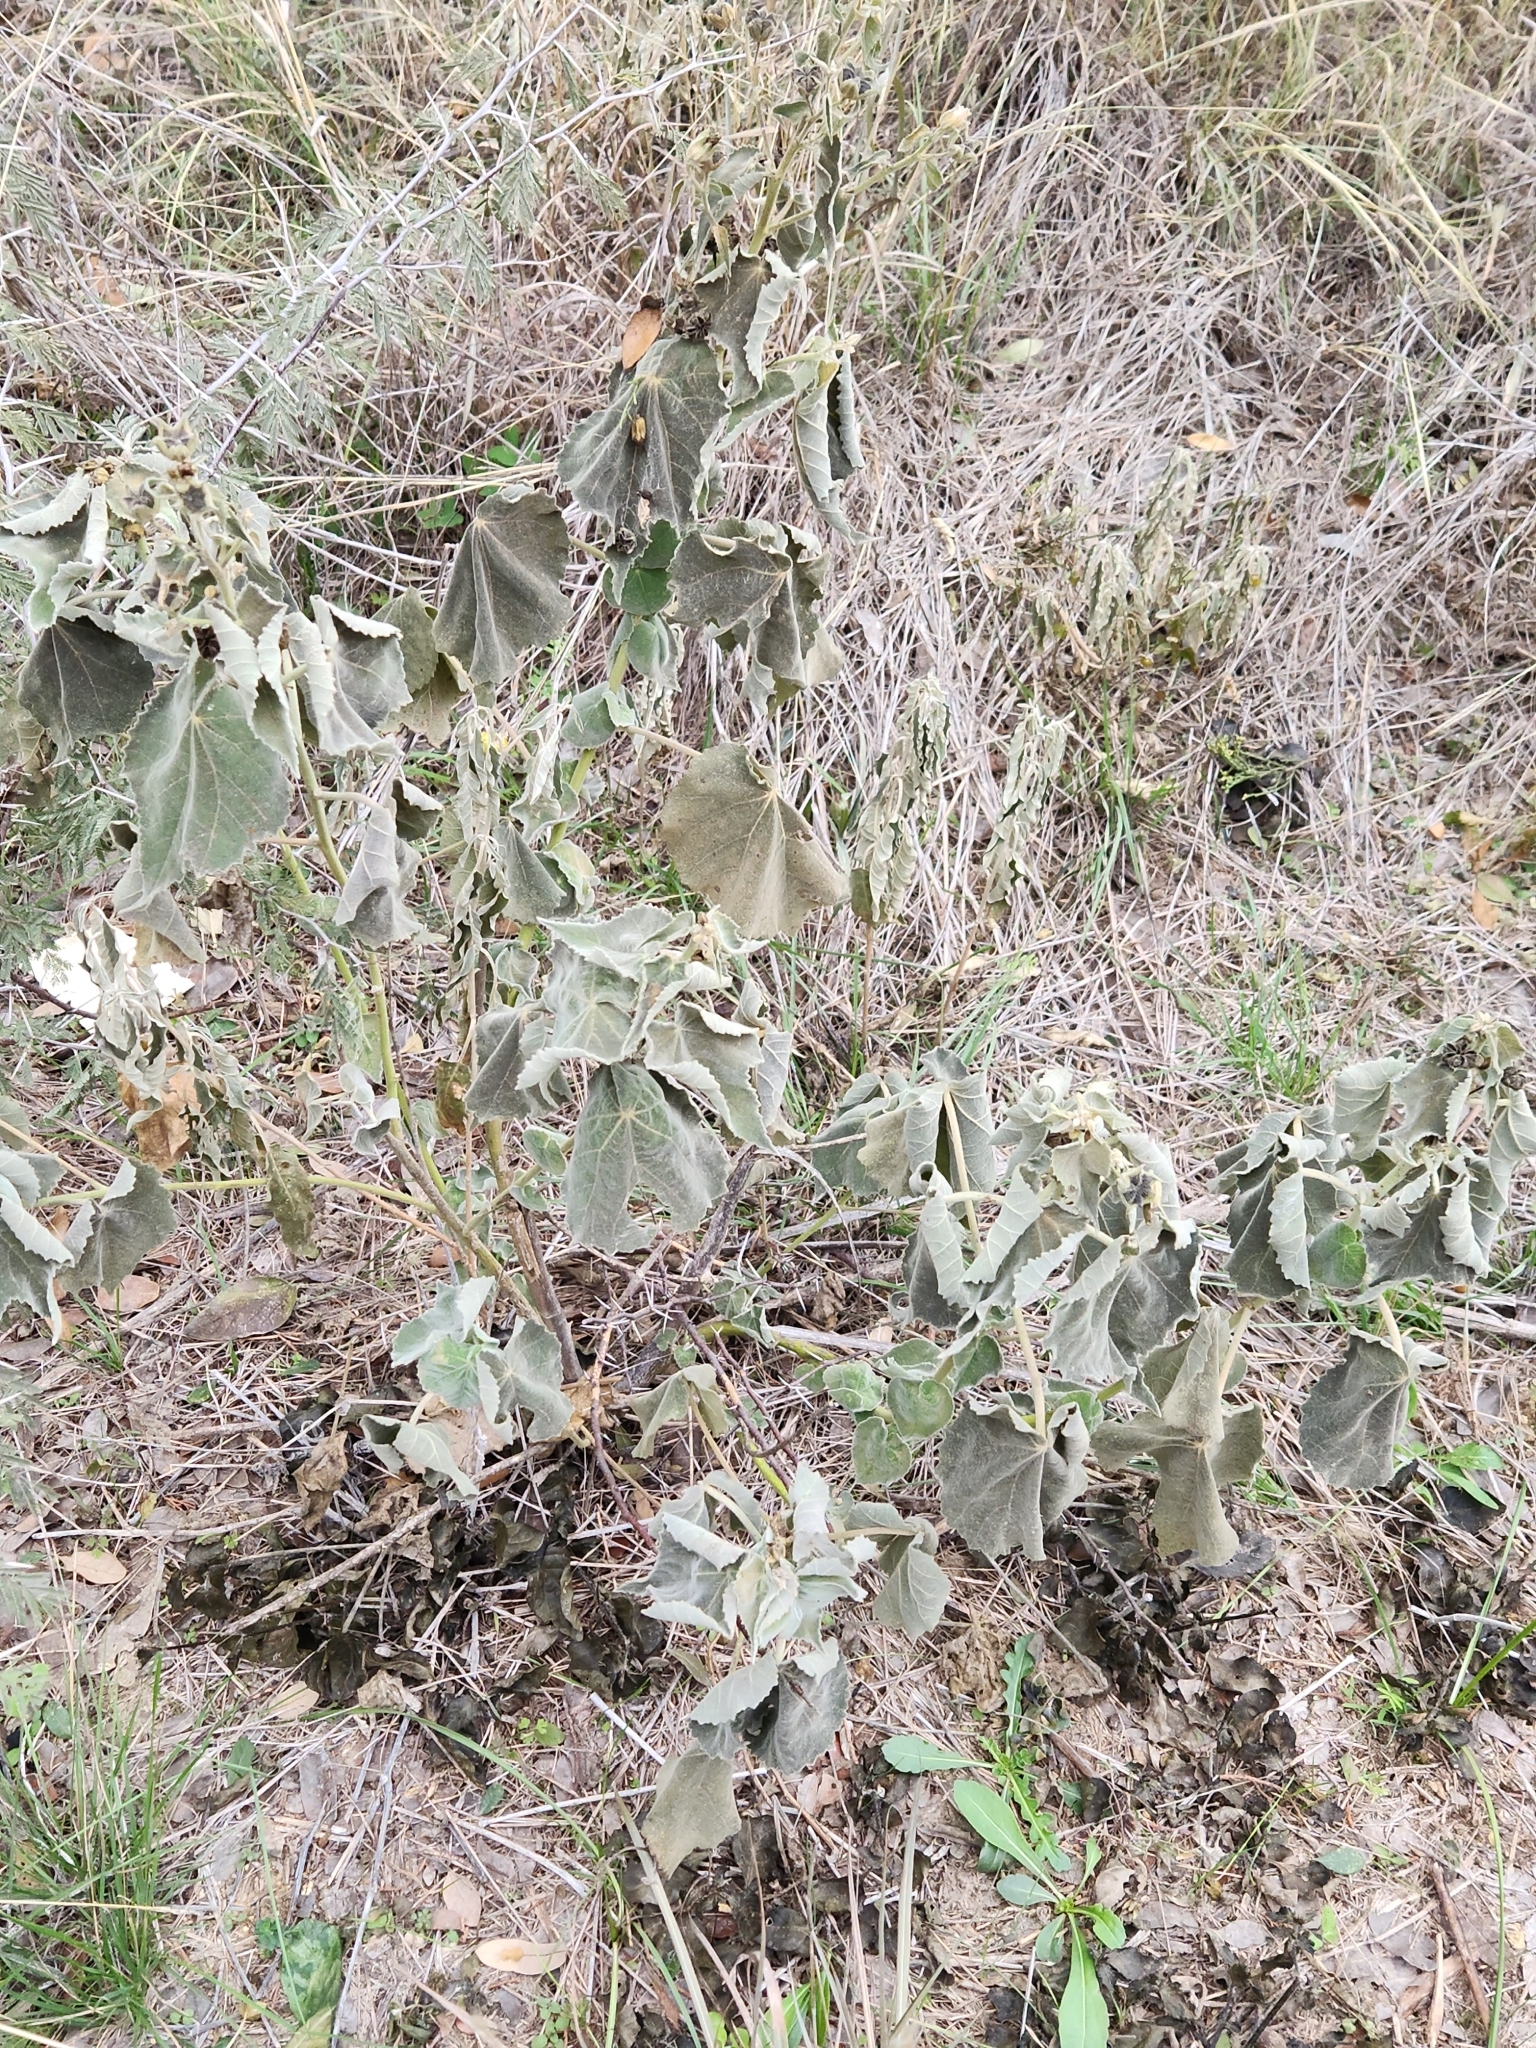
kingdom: Plantae
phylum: Tracheophyta
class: Magnoliopsida
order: Malvales
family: Malvaceae
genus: Allowissadula
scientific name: Allowissadula holosericea
